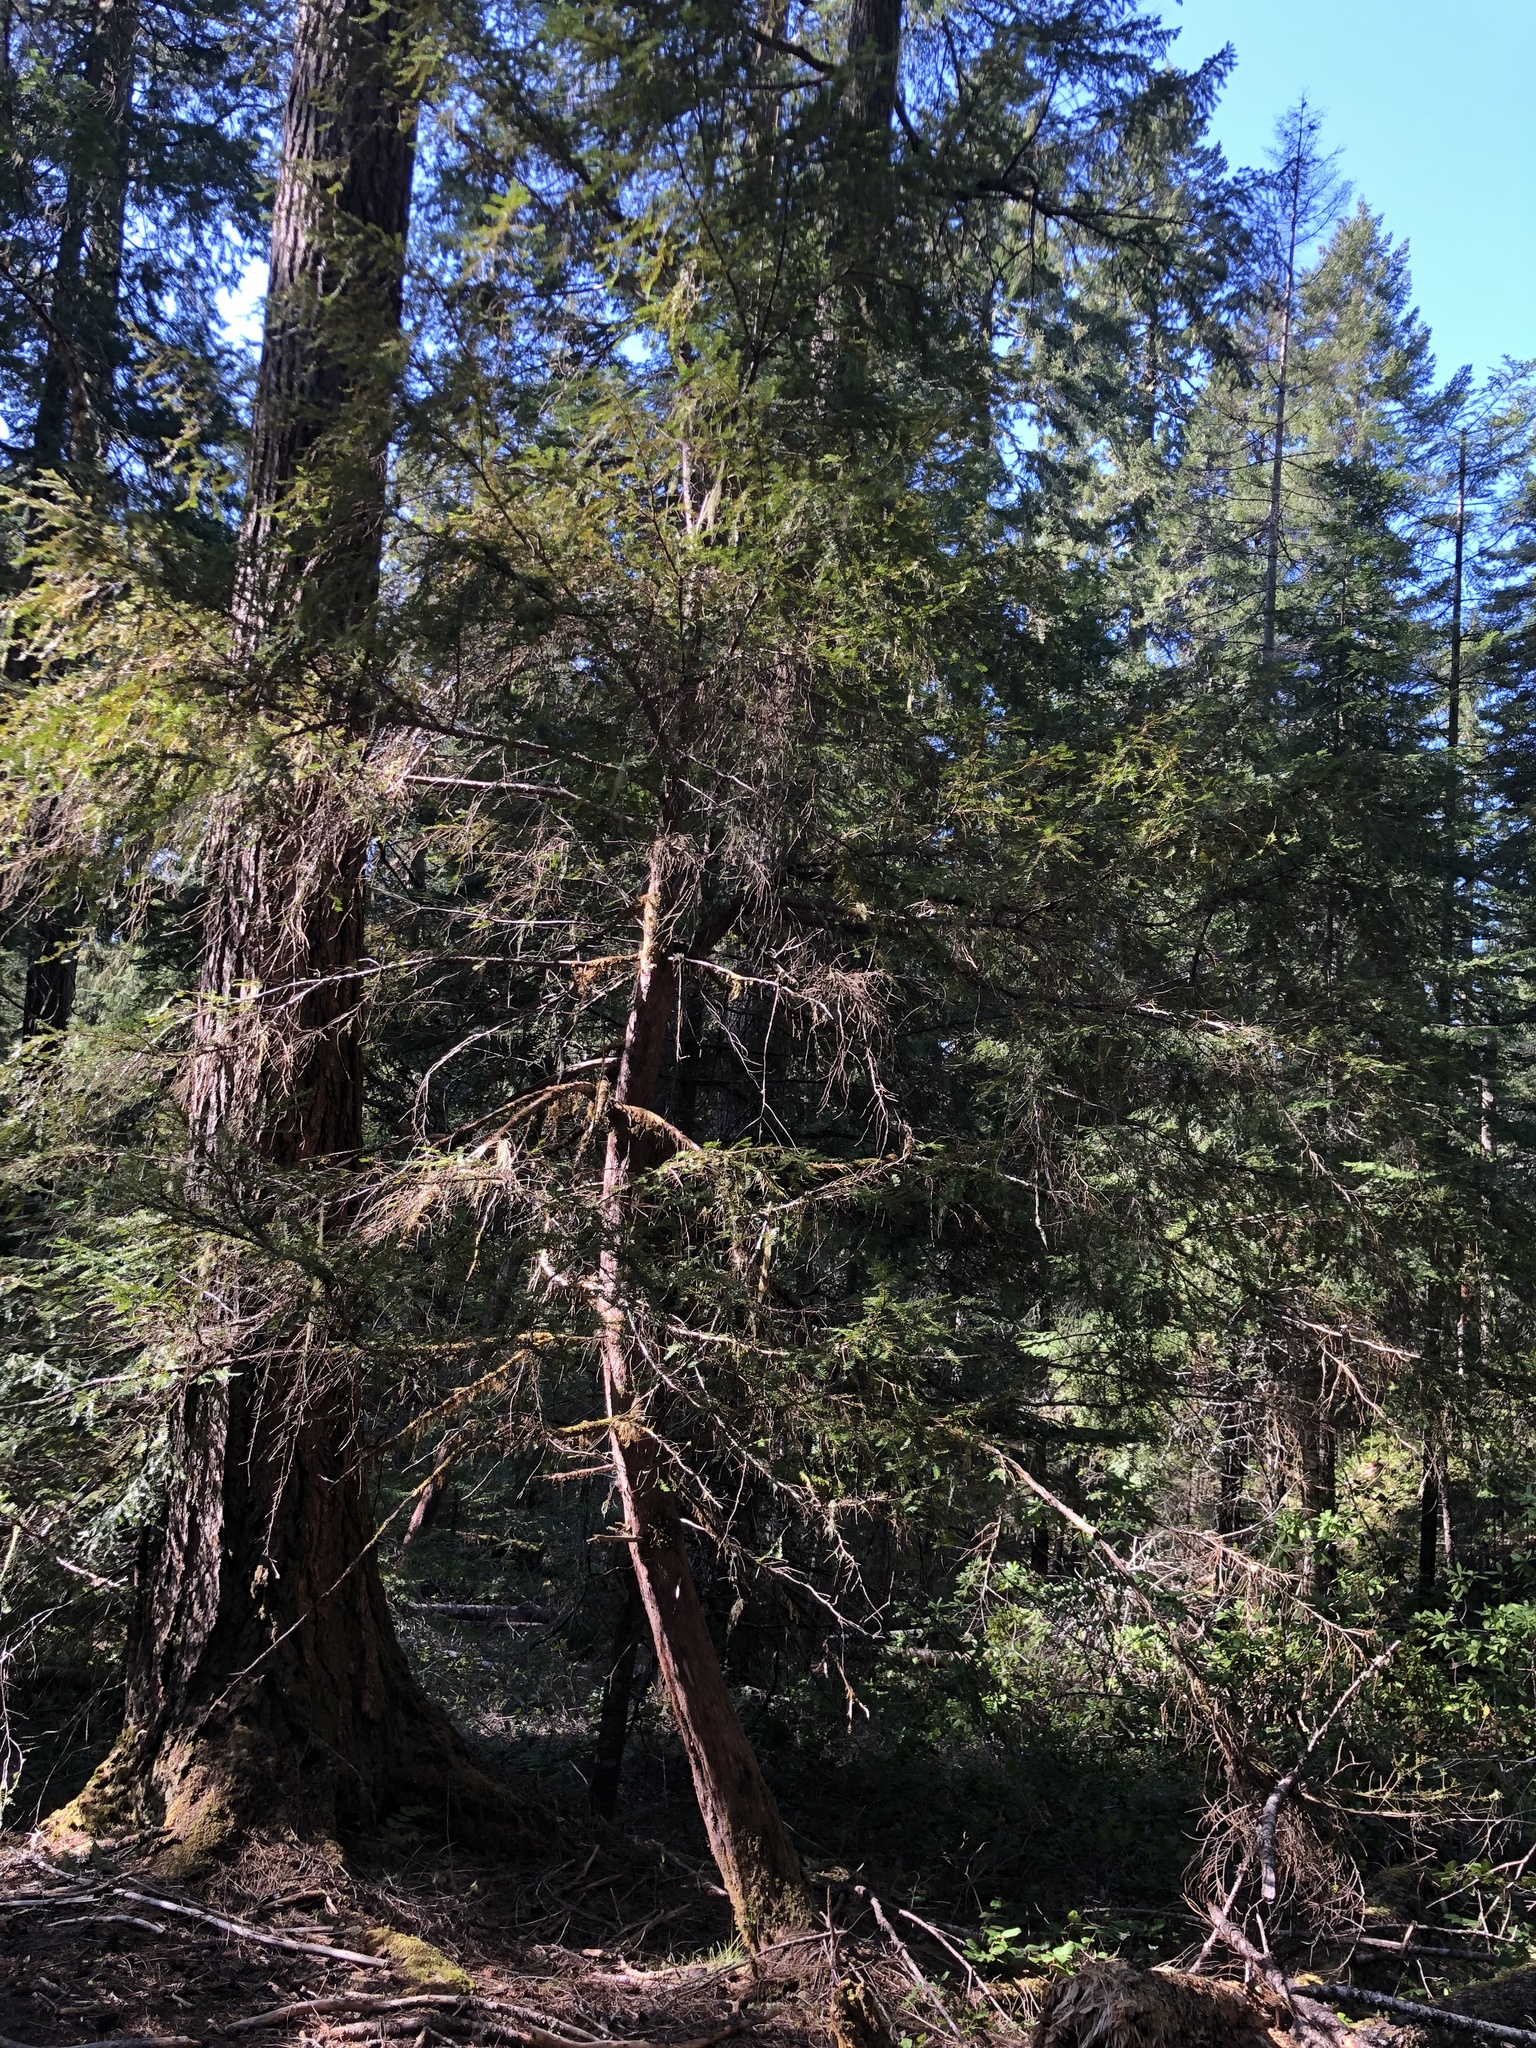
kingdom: Plantae
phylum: Tracheophyta
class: Pinopsida
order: Pinales
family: Taxaceae
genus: Taxus
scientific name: Taxus brevifolia
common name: Pacific yew
